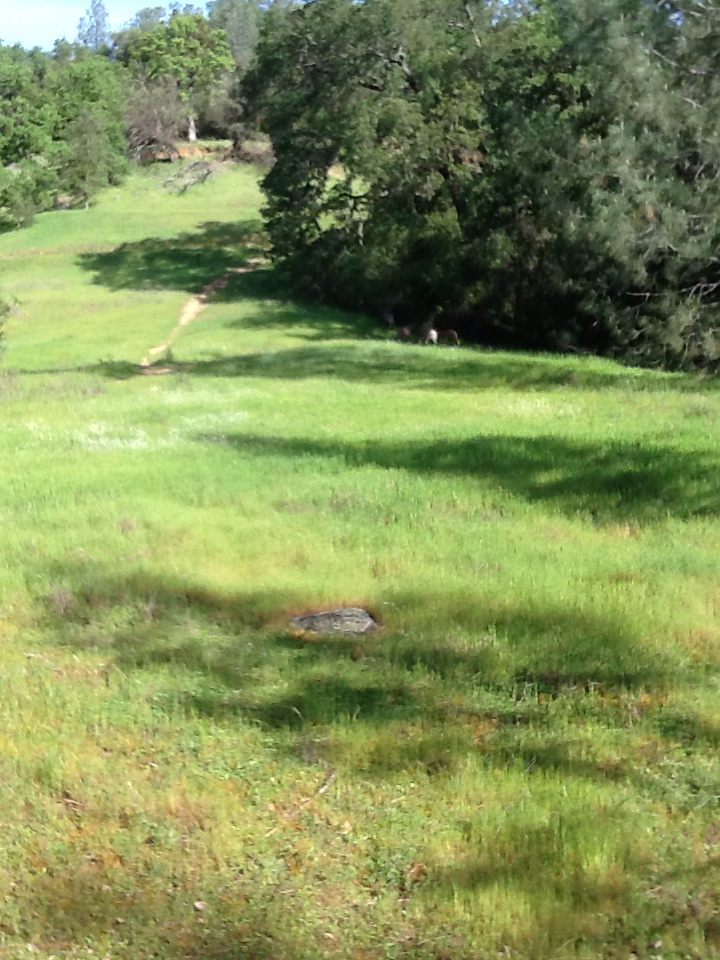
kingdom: Animalia
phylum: Chordata
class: Mammalia
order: Artiodactyla
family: Cervidae
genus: Odocoileus
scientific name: Odocoileus hemionus
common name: Mule deer
